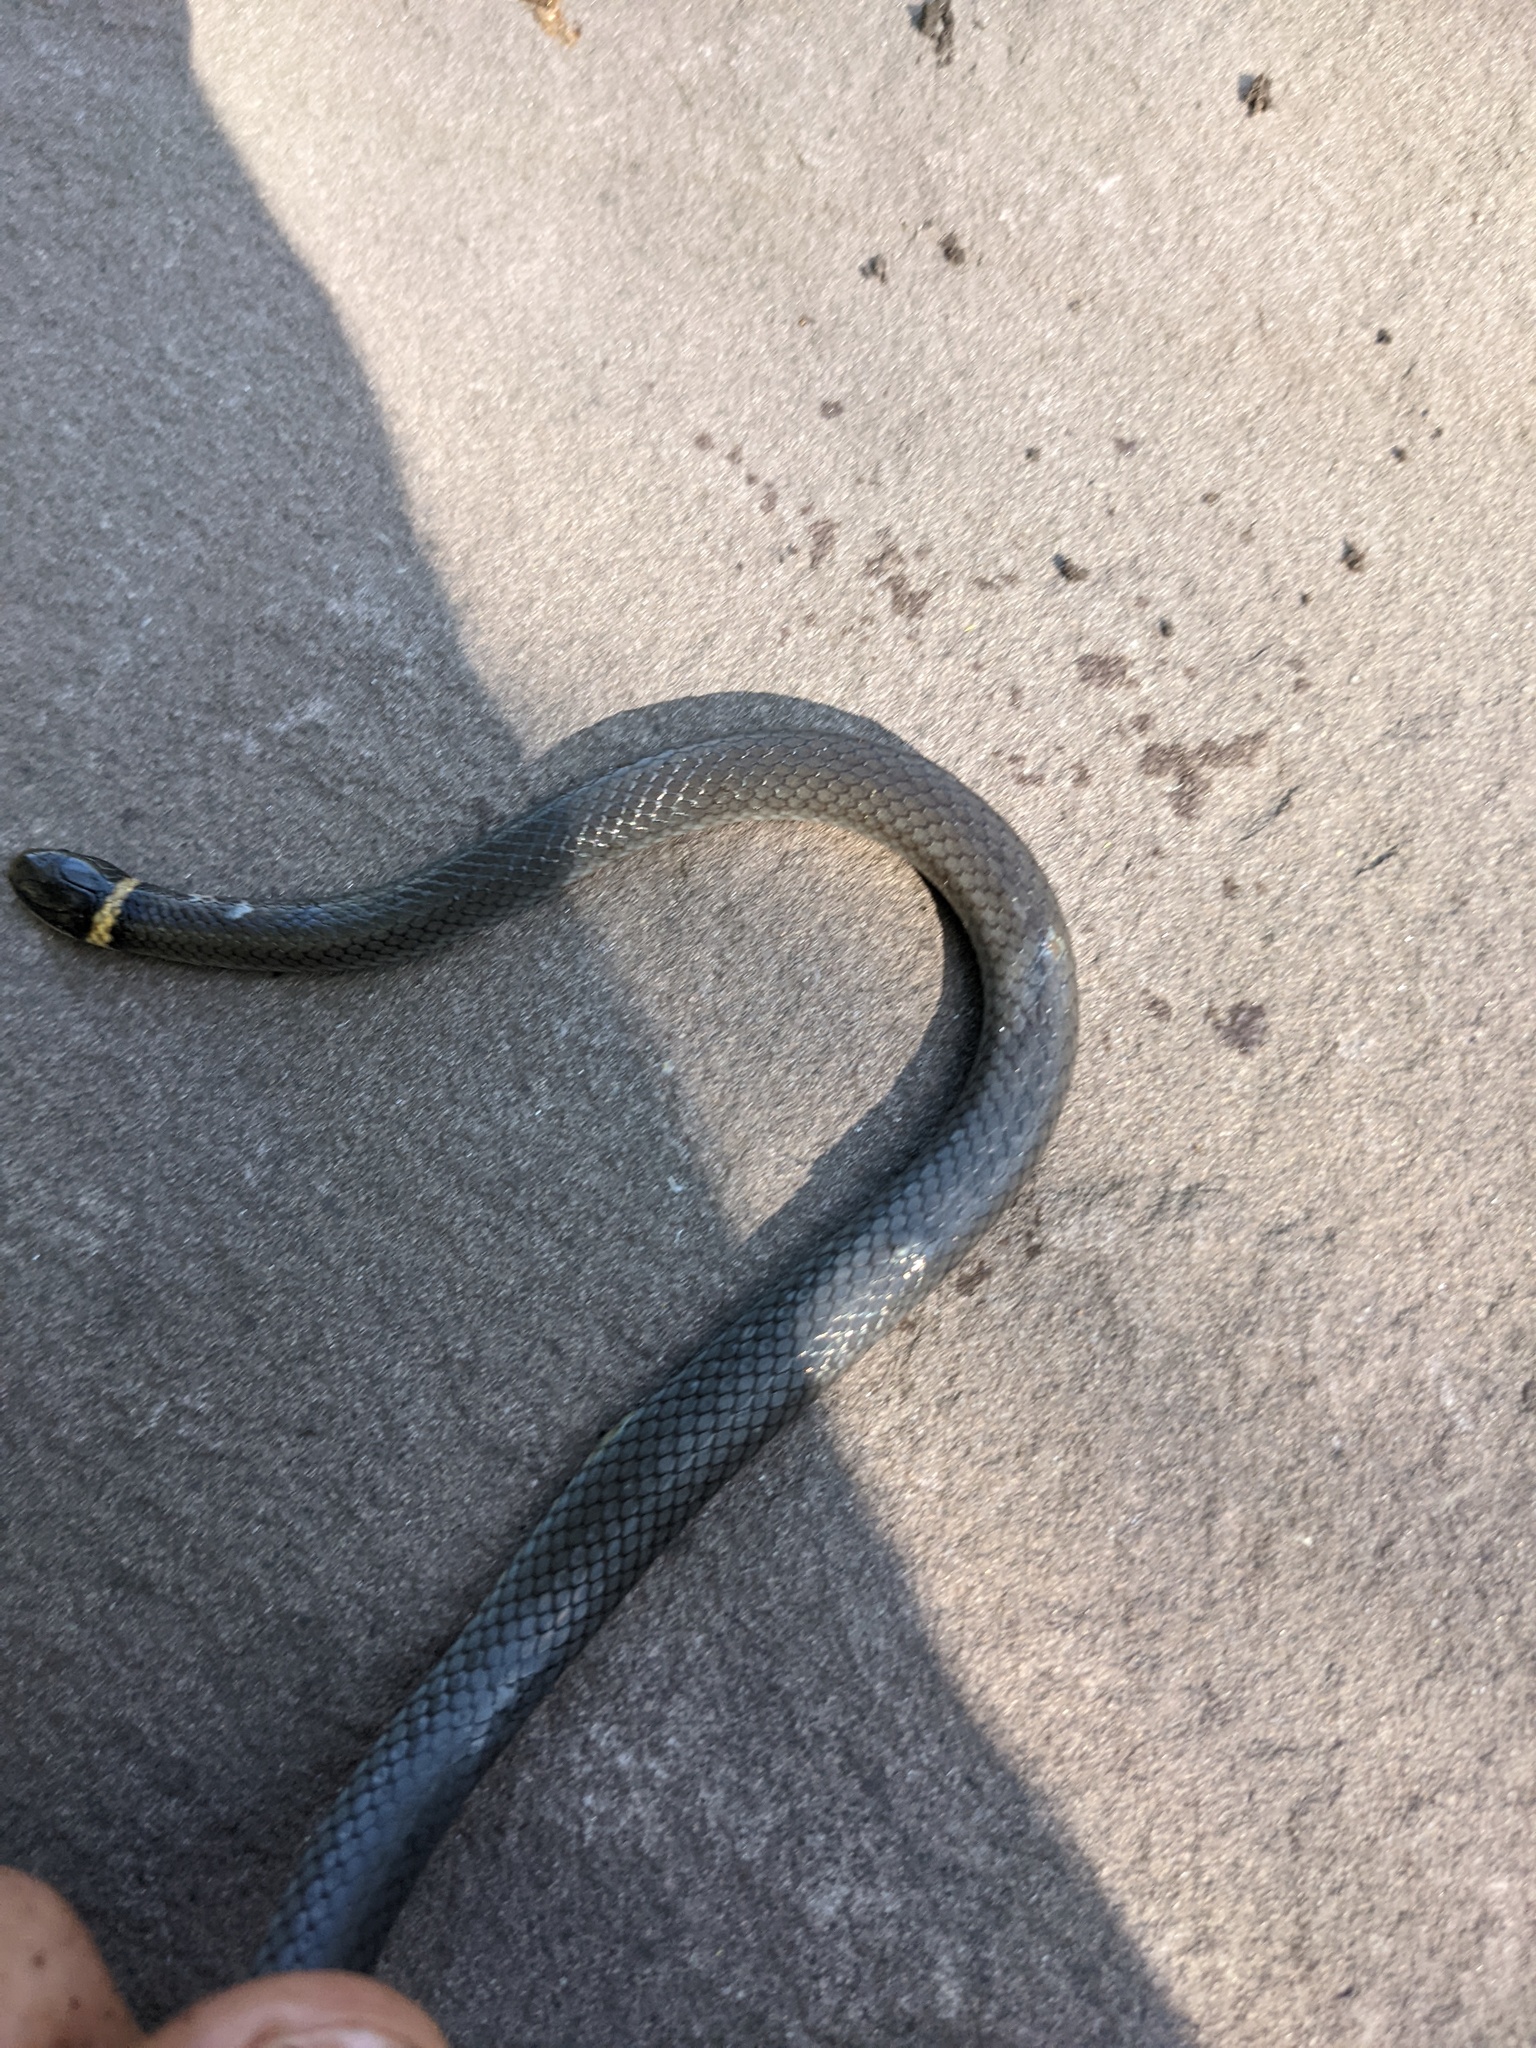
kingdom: Animalia
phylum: Chordata
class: Squamata
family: Colubridae
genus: Diadophis
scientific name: Diadophis punctatus
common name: Ringneck snake
